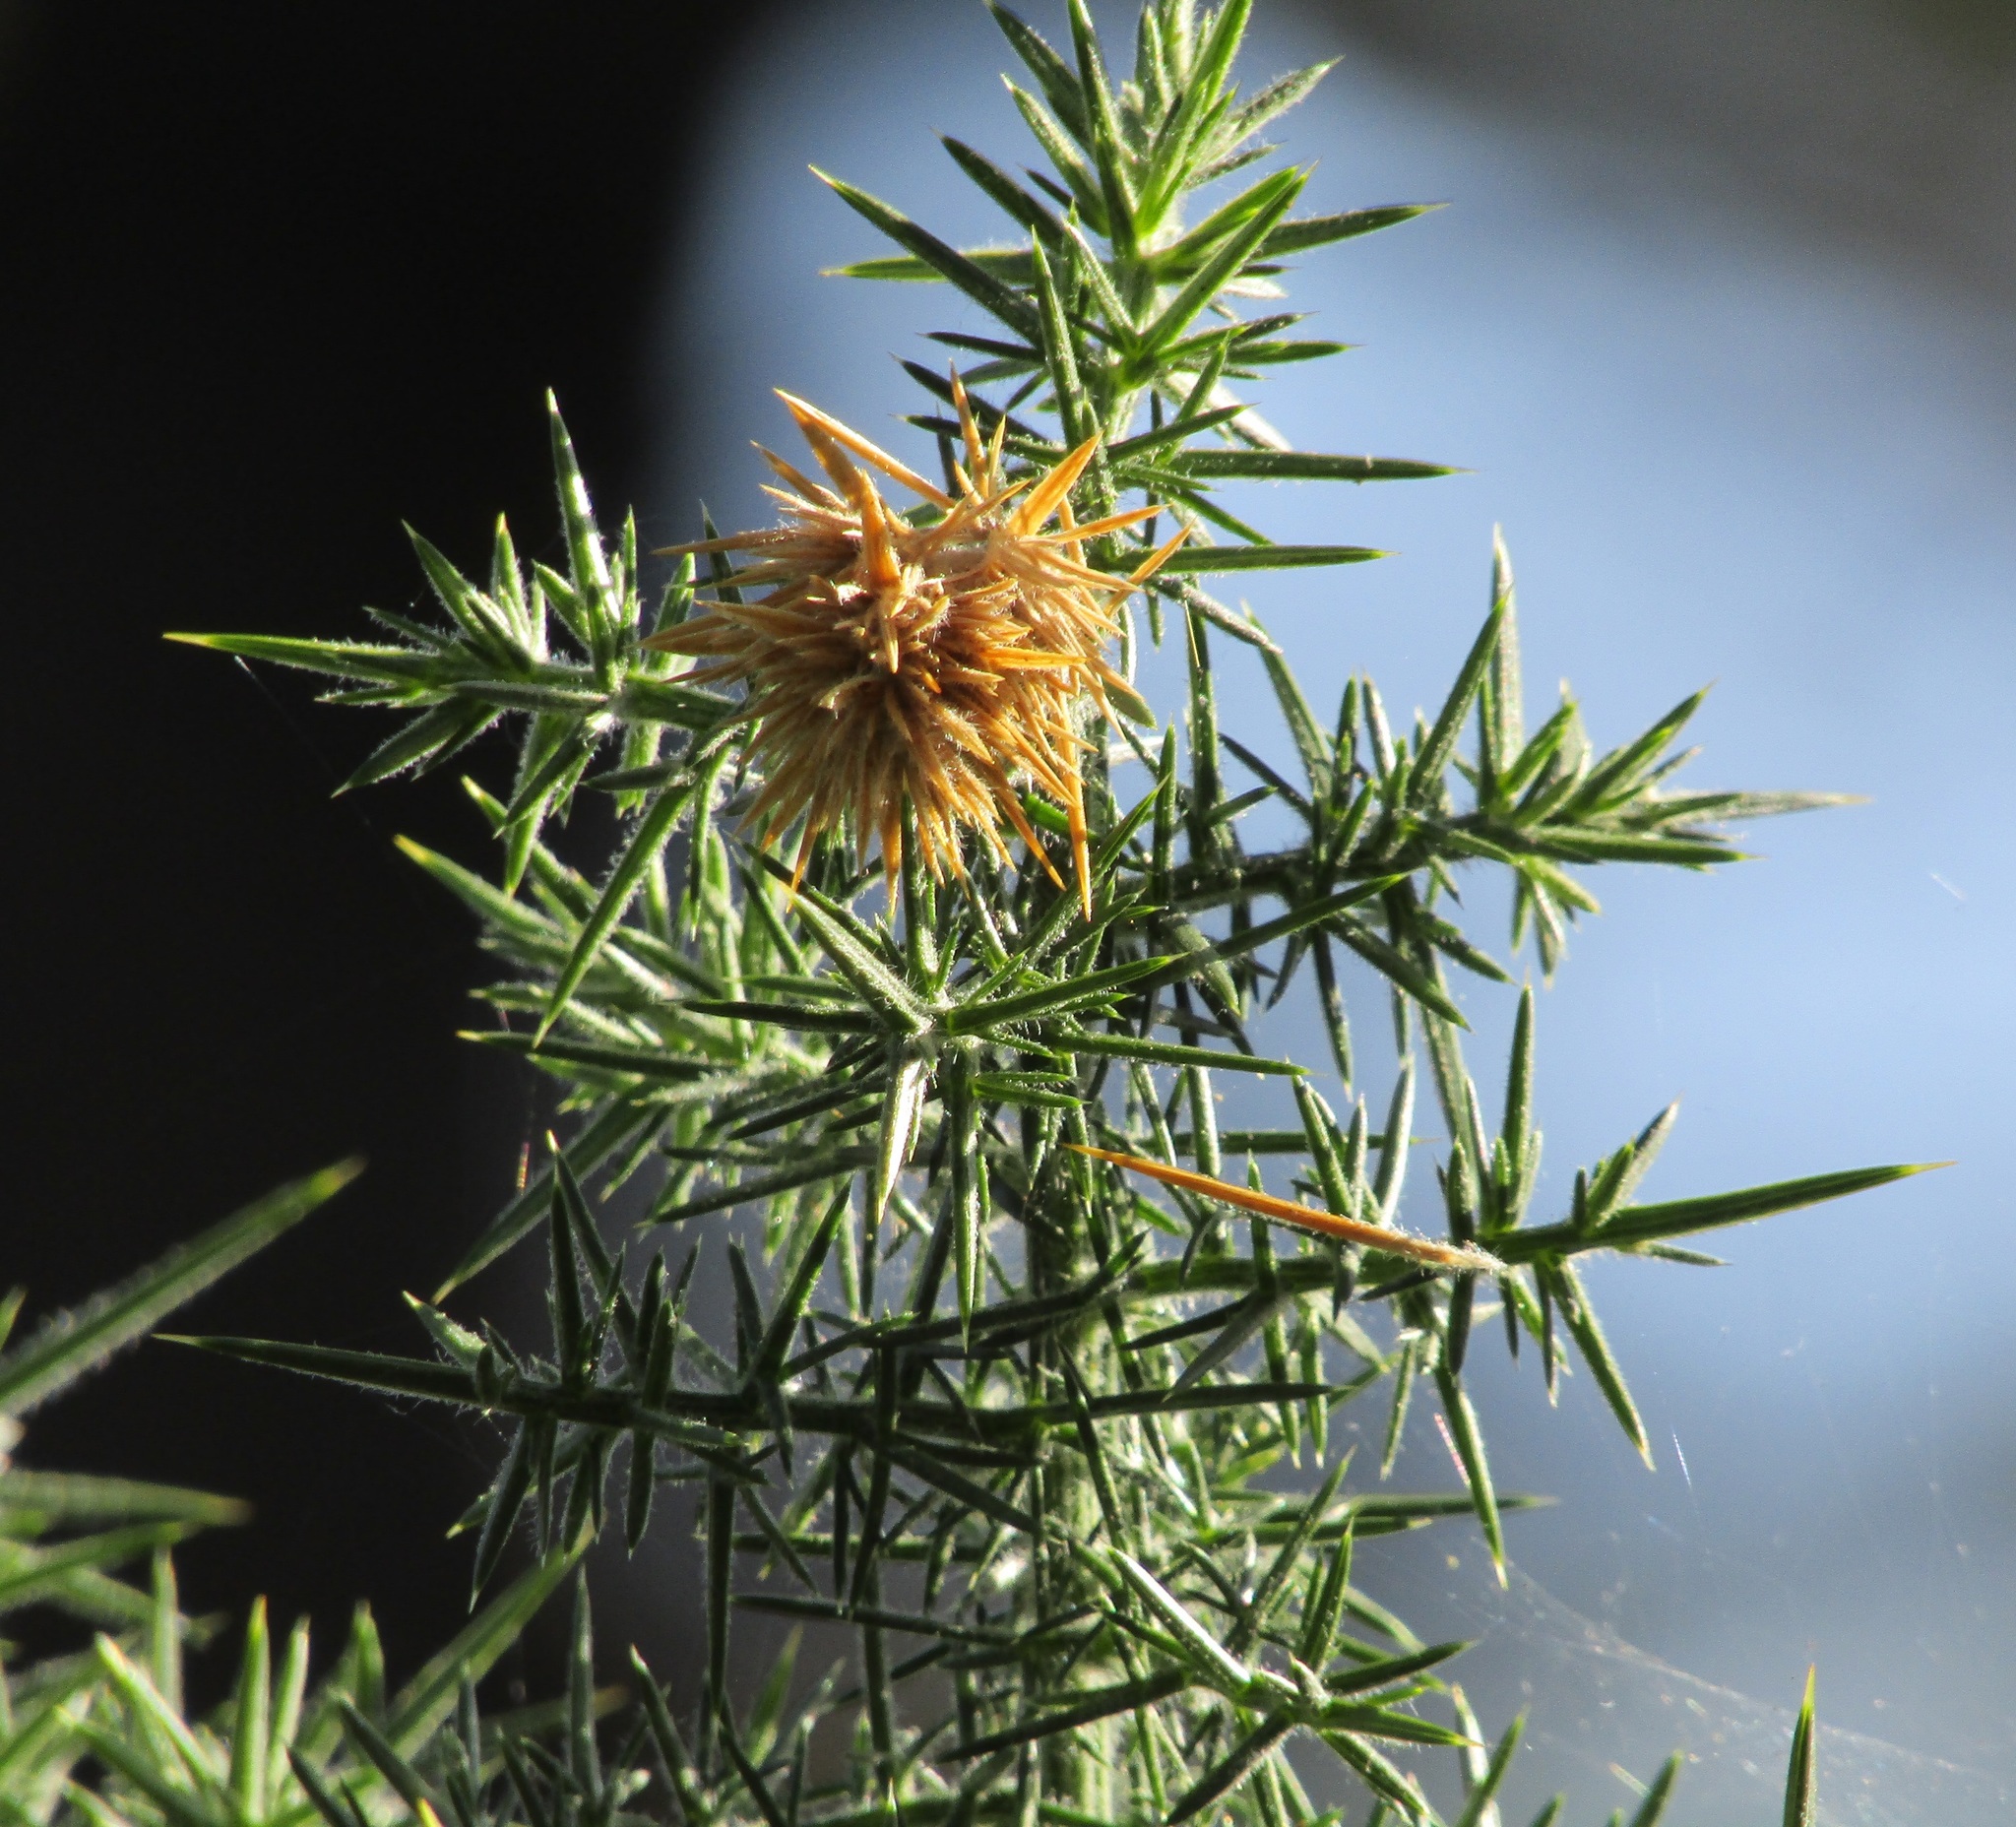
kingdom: Plantae
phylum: Tracheophyta
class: Magnoliopsida
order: Fabales
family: Fabaceae
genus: Ulex
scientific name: Ulex europaeus
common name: Common gorse
